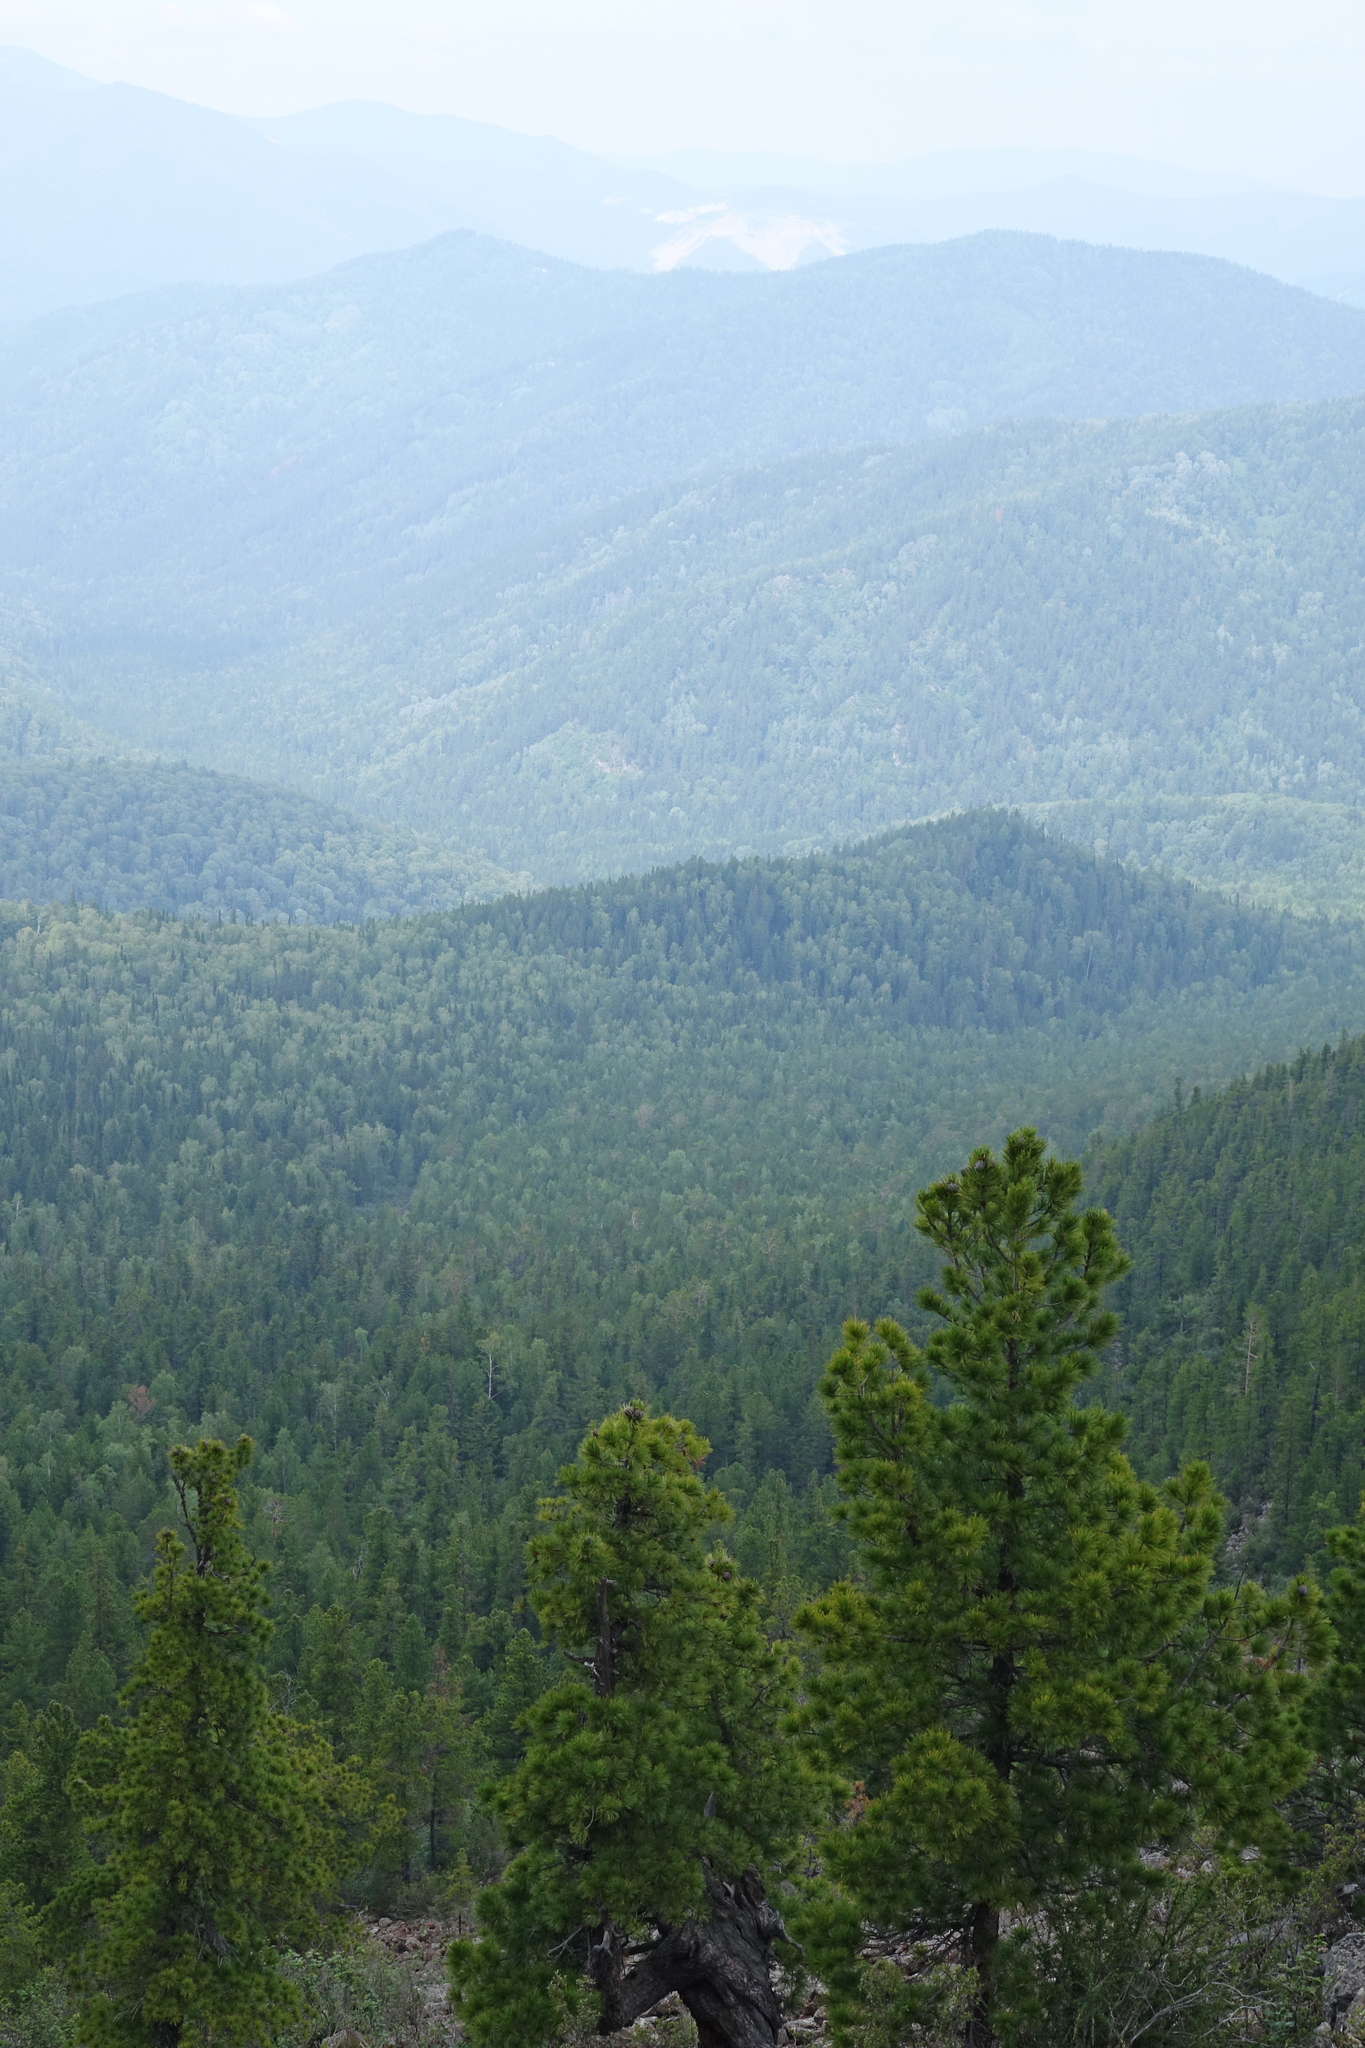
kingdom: Plantae
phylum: Tracheophyta
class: Pinopsida
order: Pinales
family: Pinaceae
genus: Pinus
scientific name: Pinus sibirica
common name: Siberian pine
